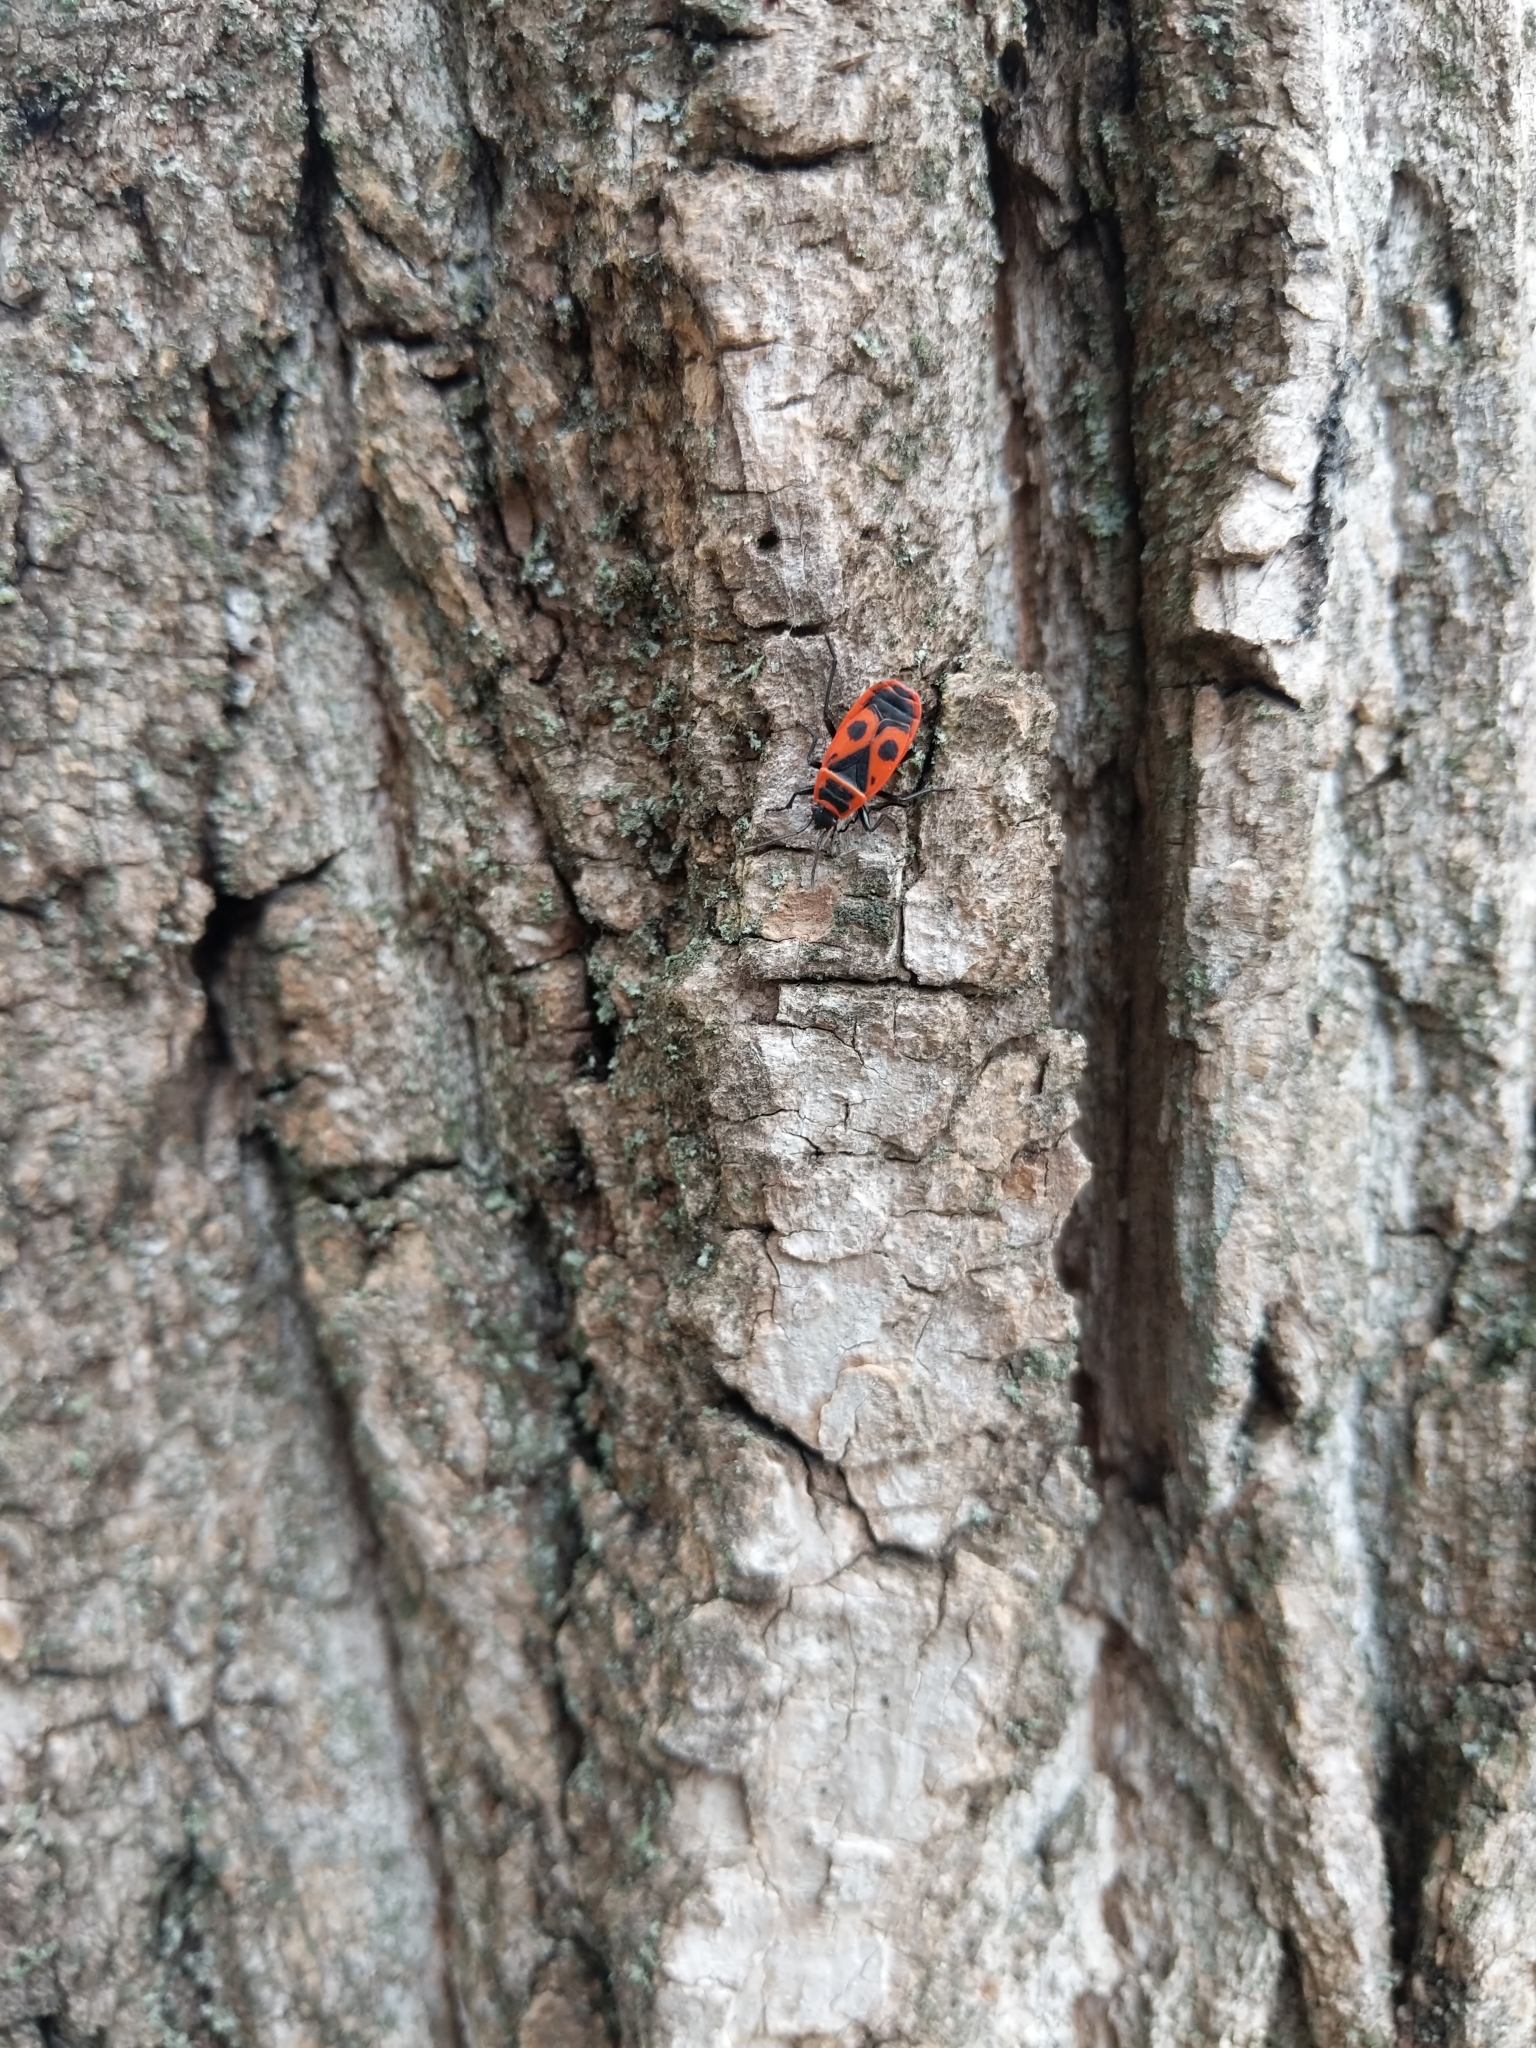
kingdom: Animalia
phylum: Arthropoda
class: Insecta
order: Hemiptera
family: Pyrrhocoridae
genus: Pyrrhocoris
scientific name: Pyrrhocoris apterus
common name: Firebug
